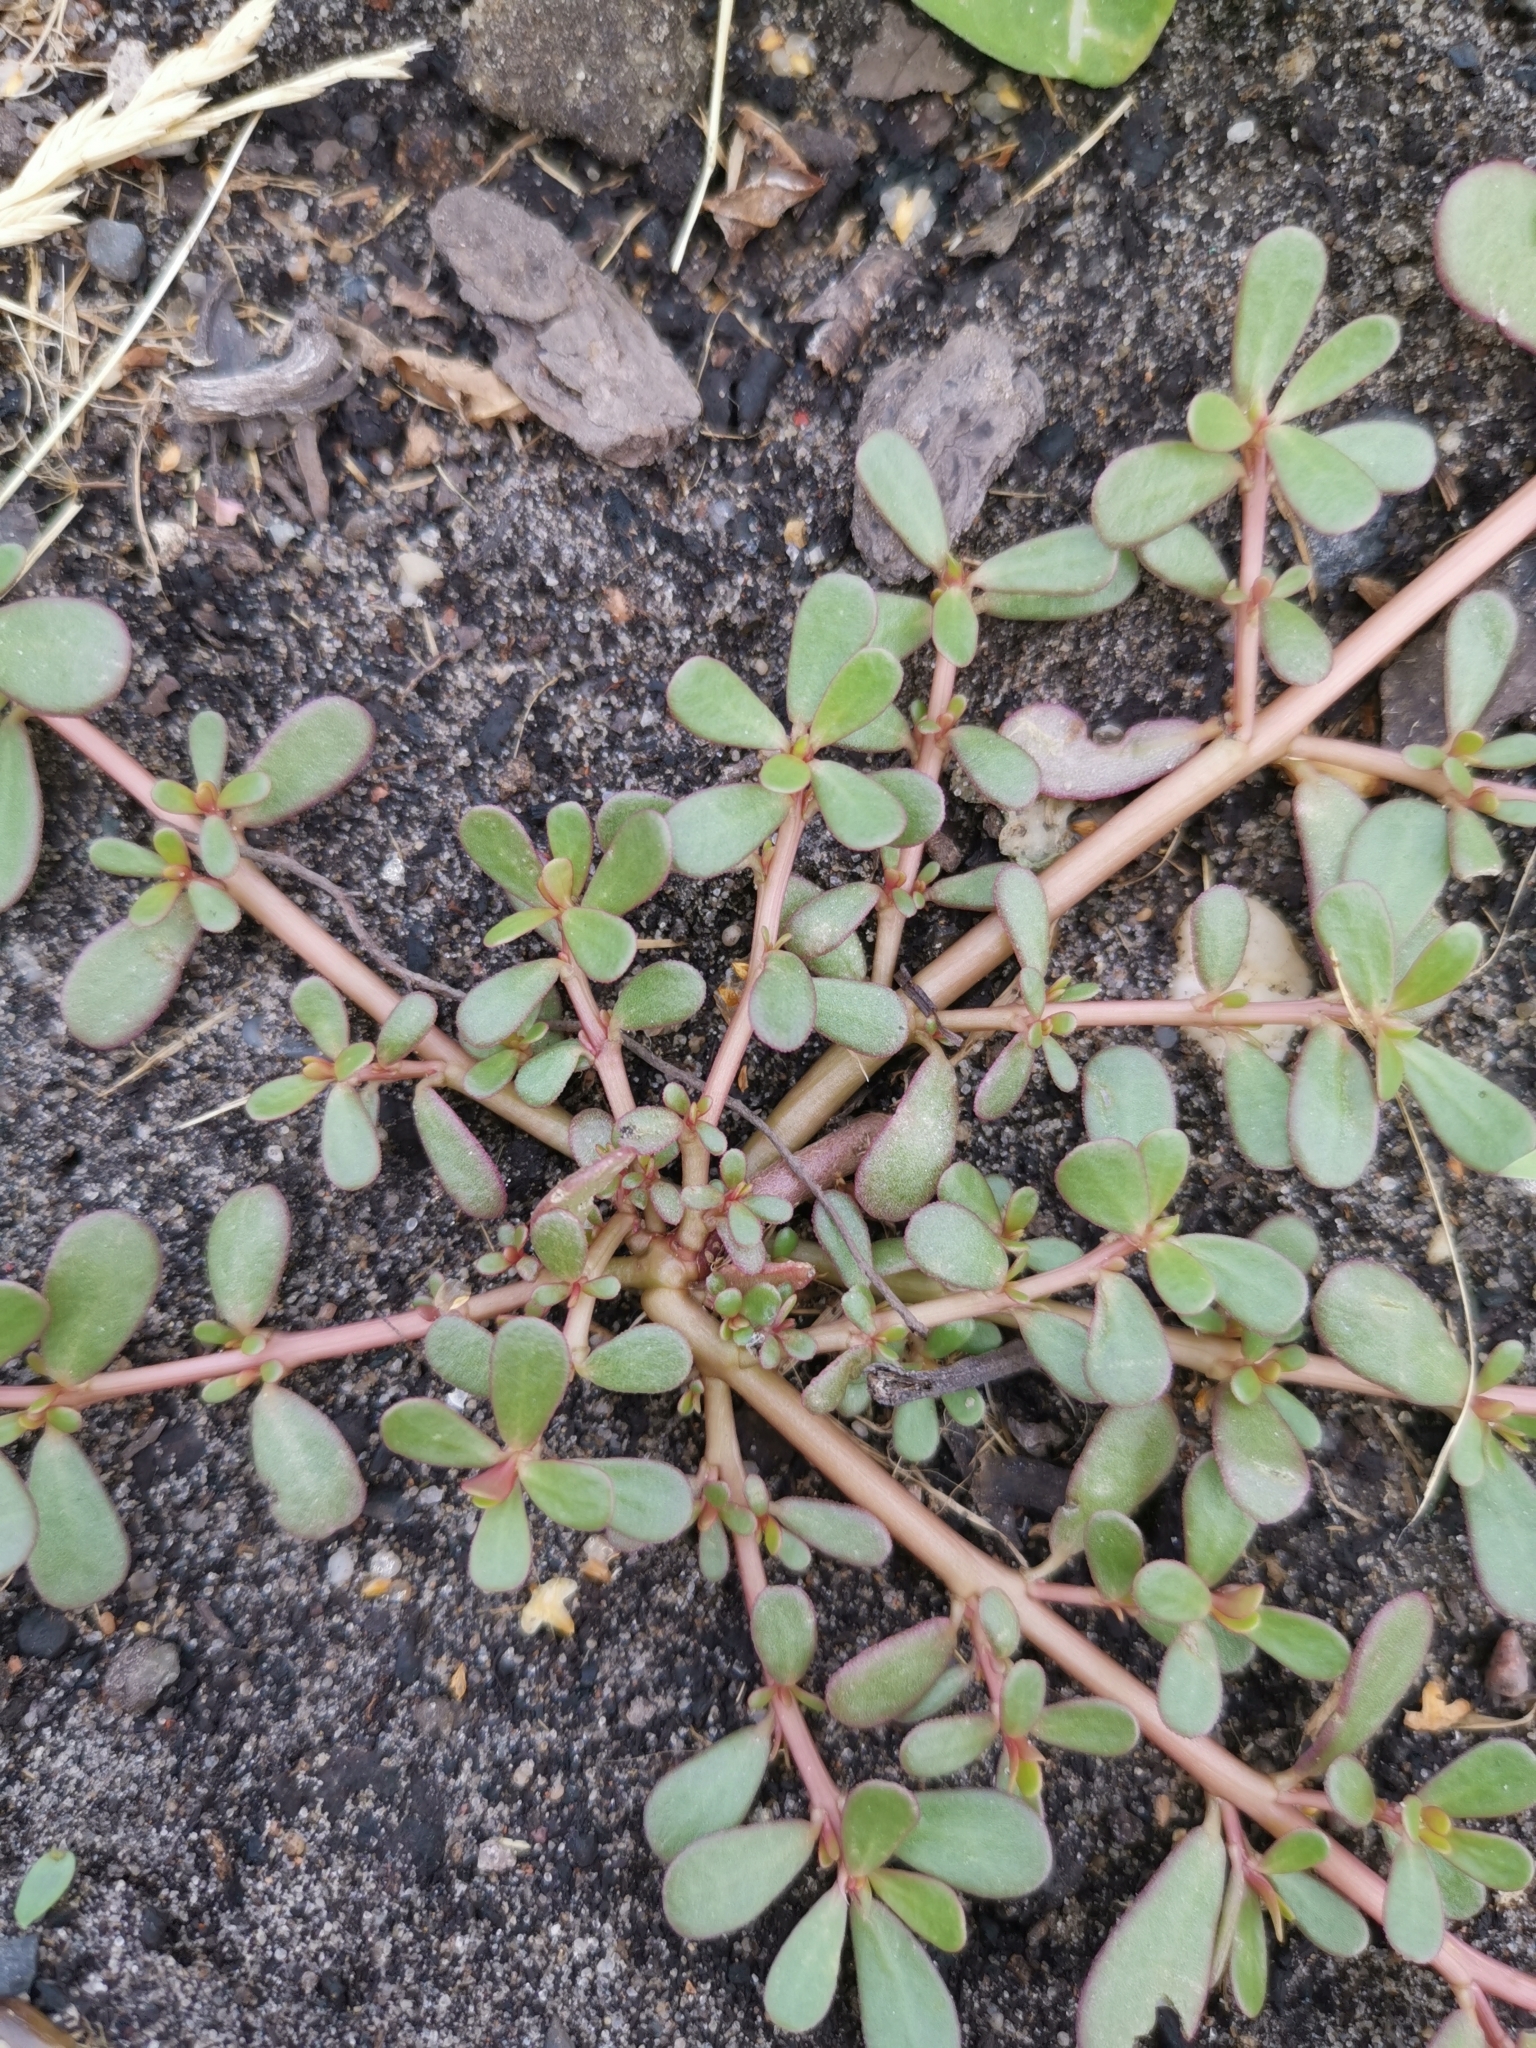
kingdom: Plantae
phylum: Tracheophyta
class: Magnoliopsida
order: Caryophyllales
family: Portulacaceae
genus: Portulaca
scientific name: Portulaca oleracea
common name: Common purslane
